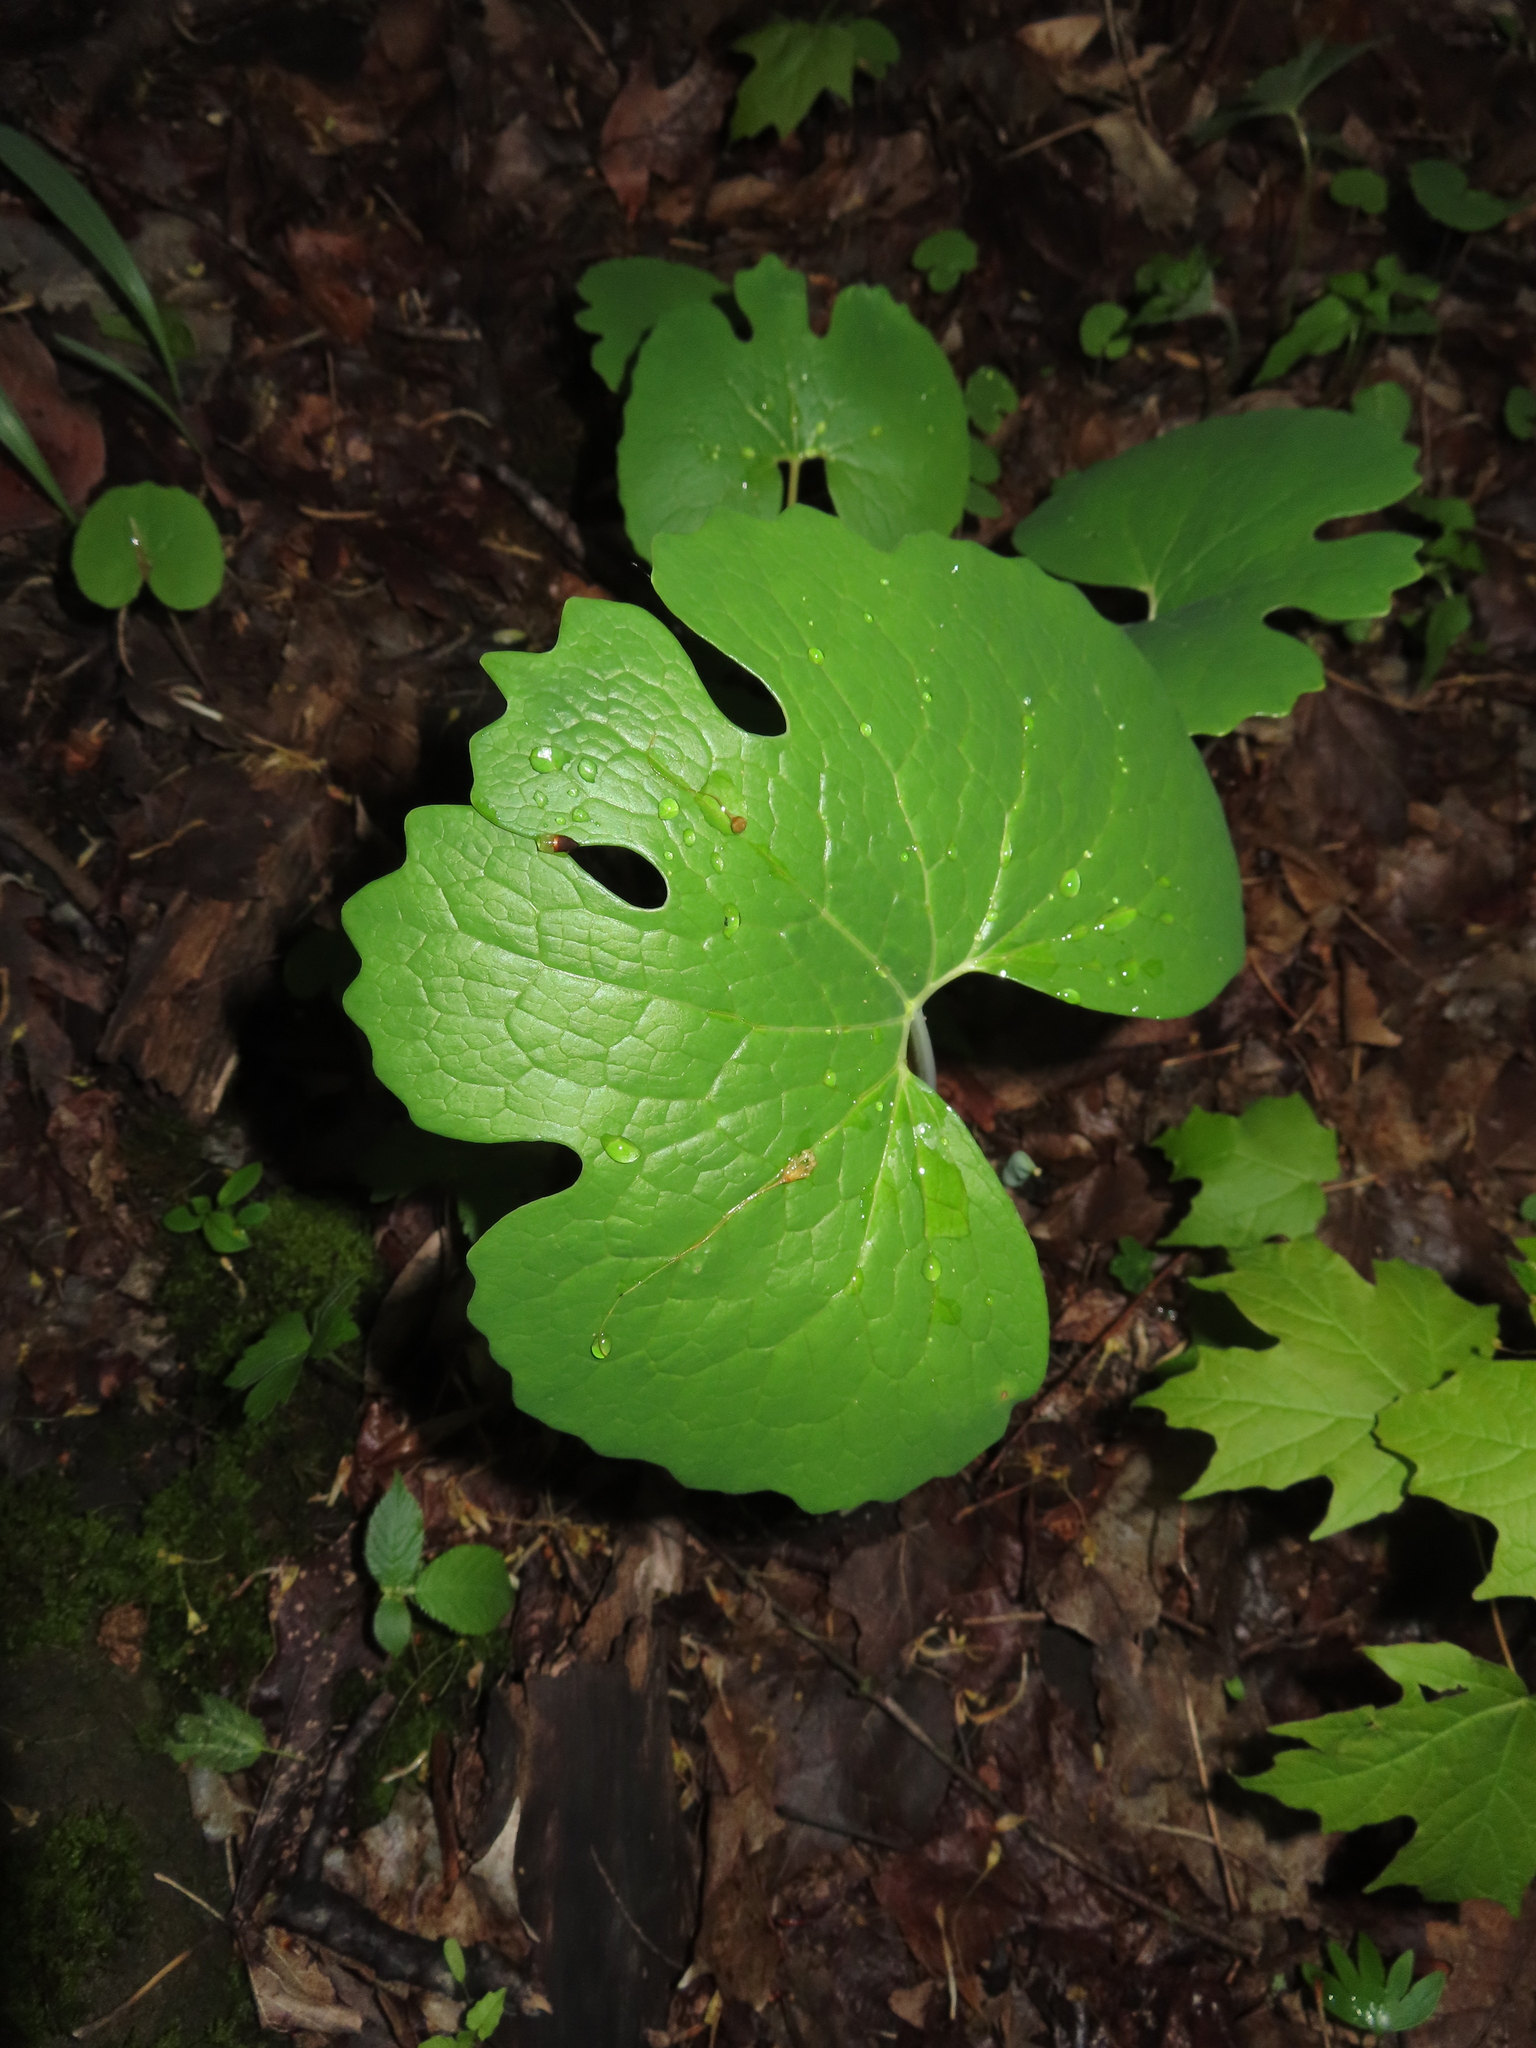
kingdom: Plantae
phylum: Tracheophyta
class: Magnoliopsida
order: Ranunculales
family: Papaveraceae
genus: Sanguinaria
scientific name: Sanguinaria canadensis
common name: Bloodroot
